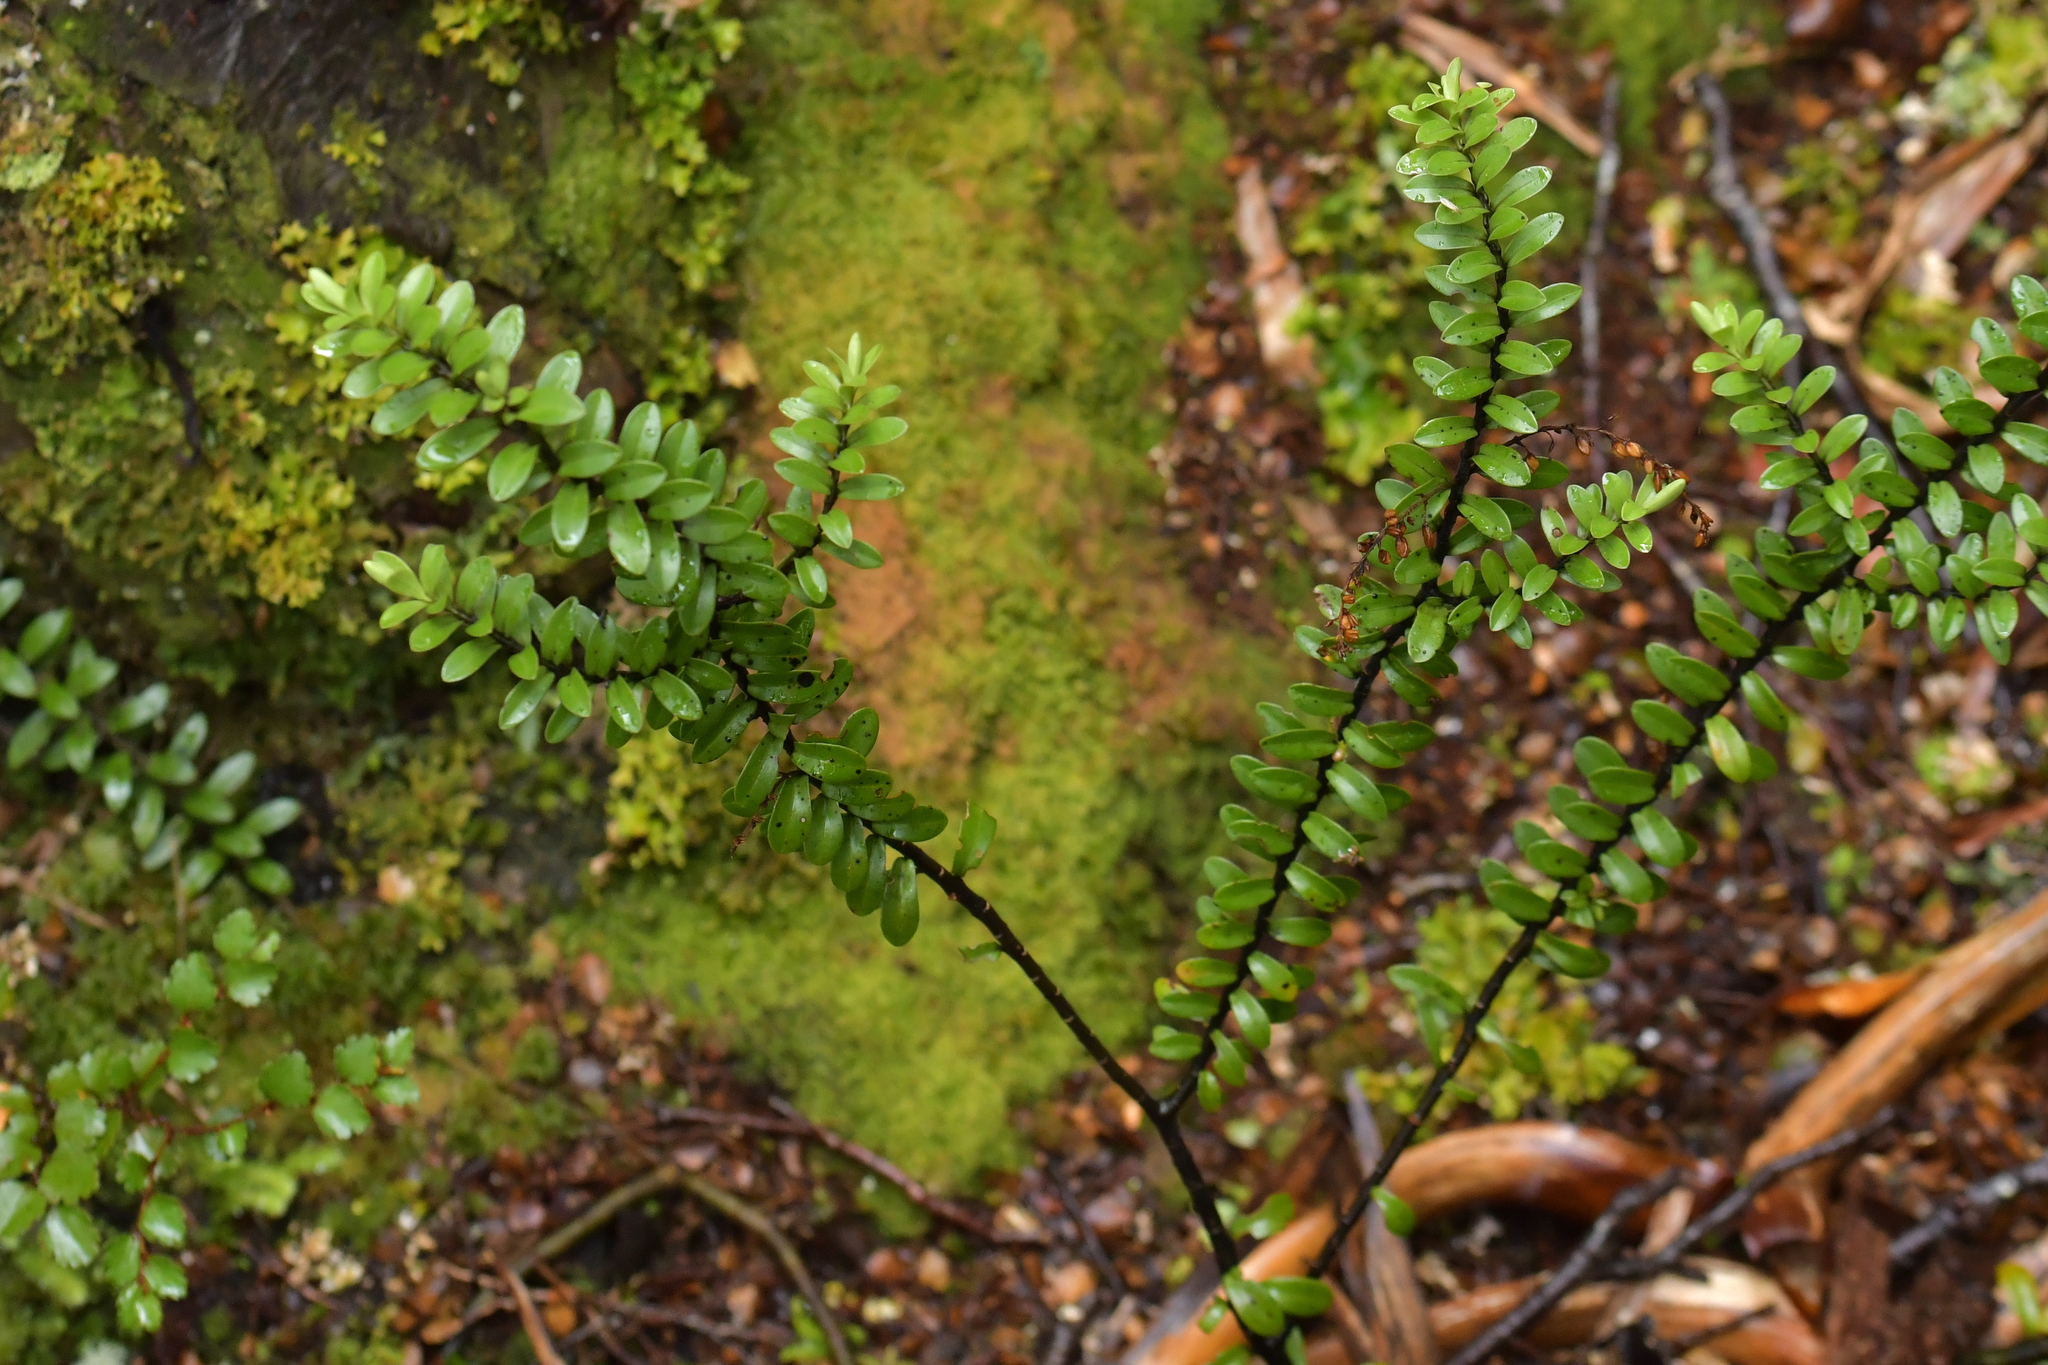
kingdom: Plantae
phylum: Tracheophyta
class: Magnoliopsida
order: Lamiales
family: Plantaginaceae
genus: Veronica
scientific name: Veronica vernicosa
